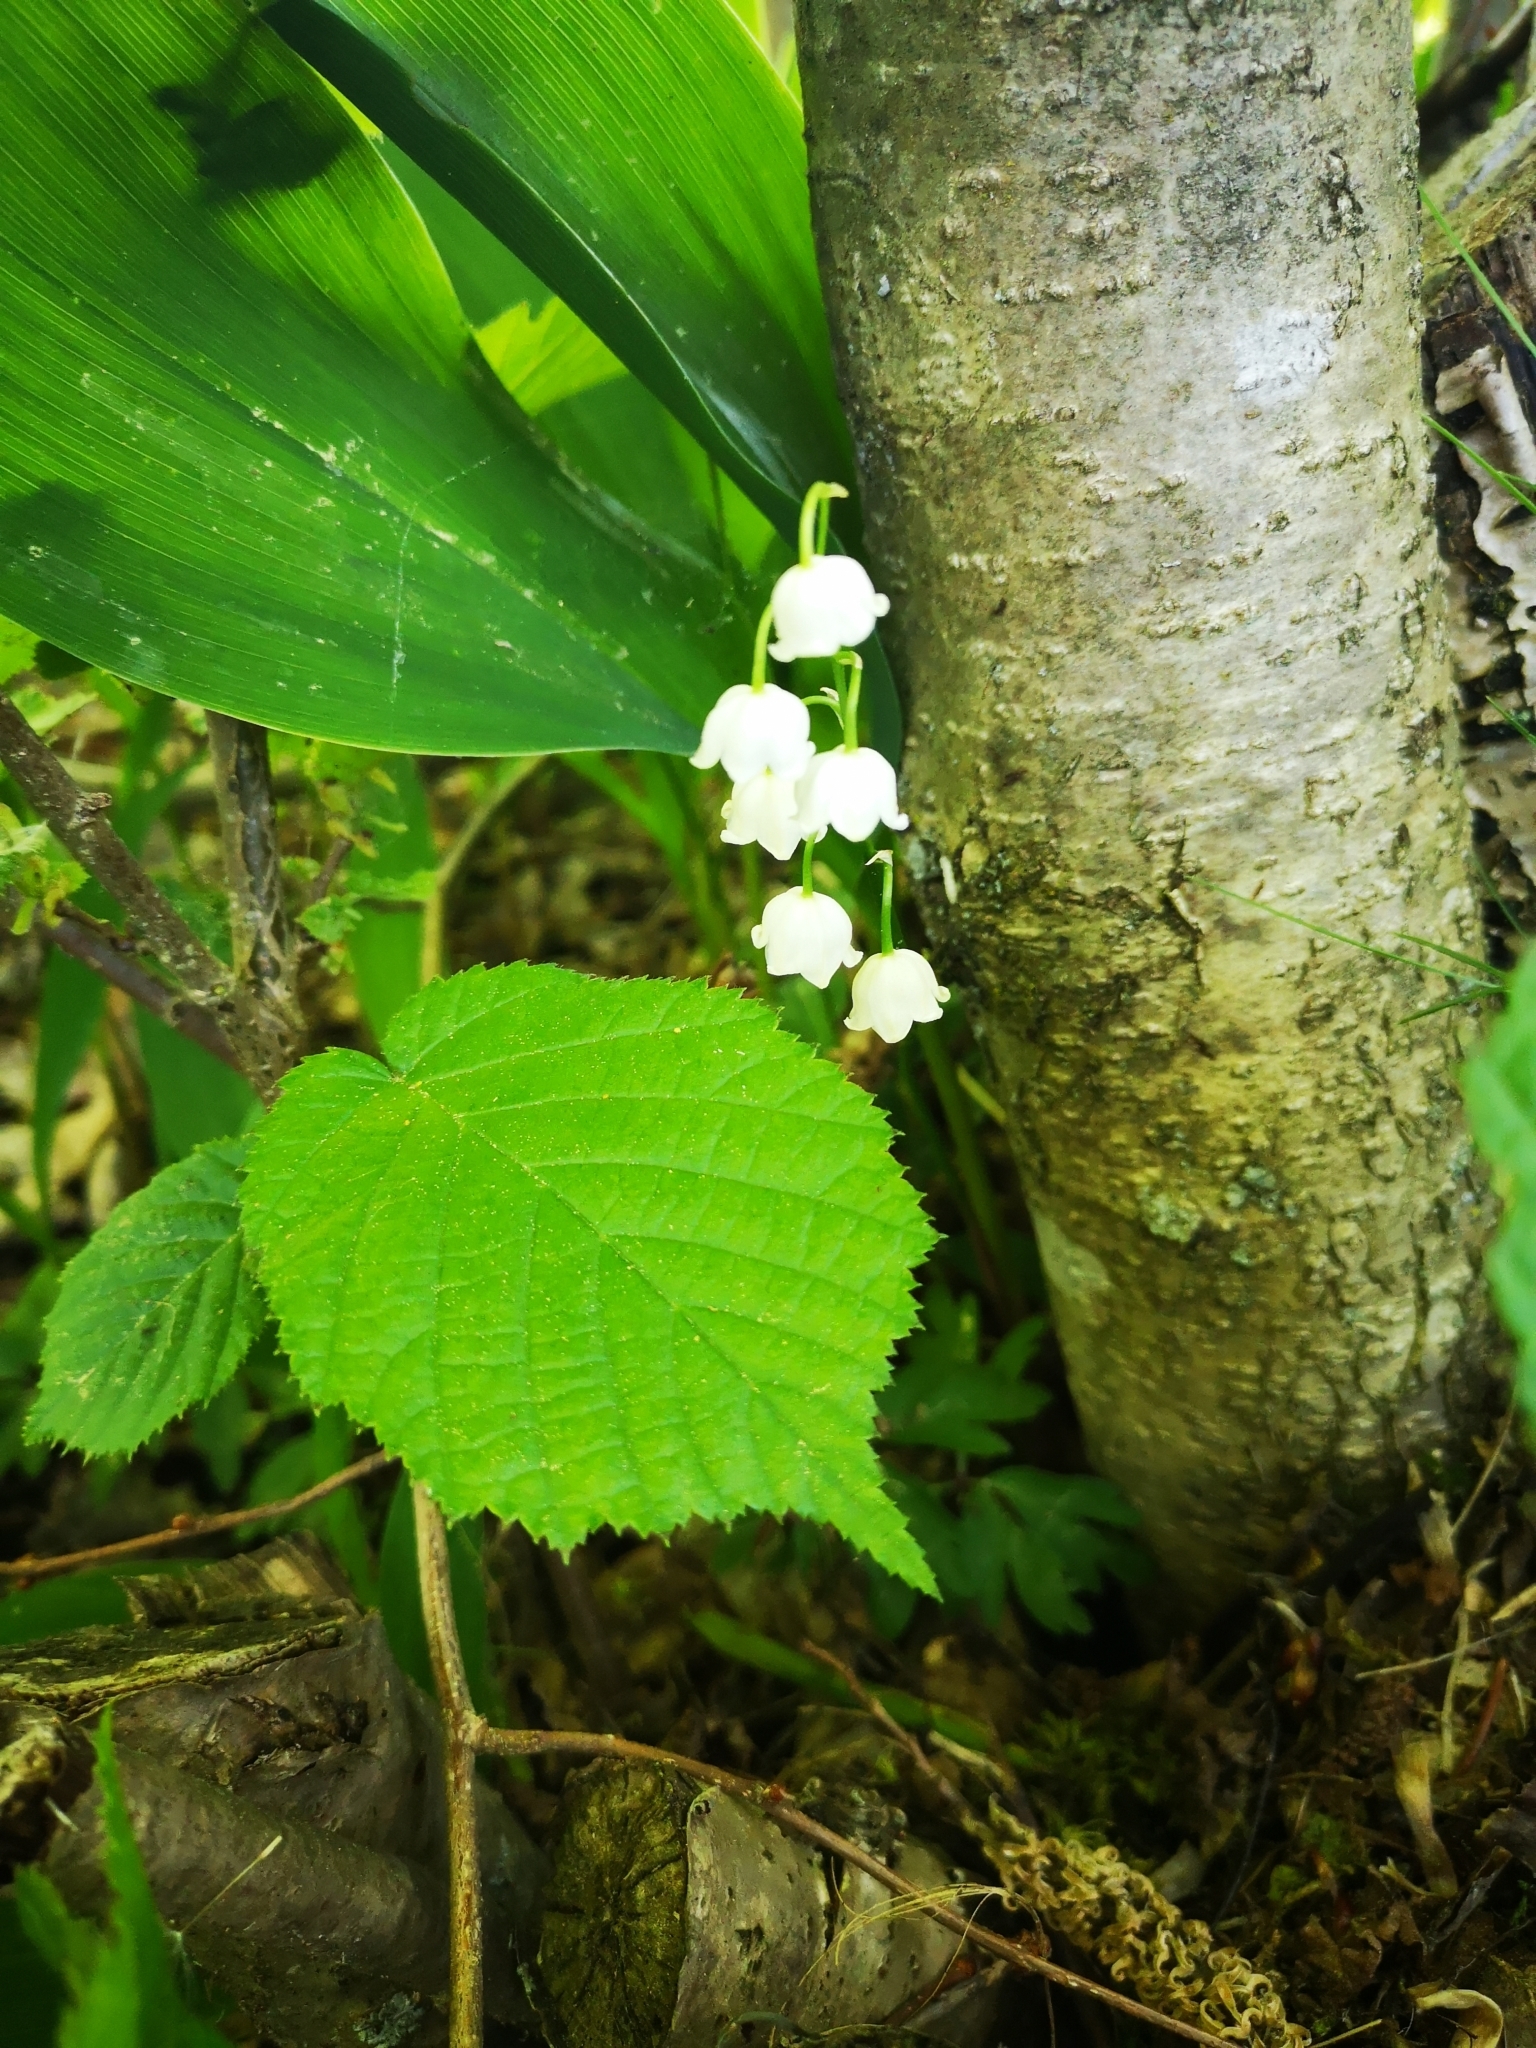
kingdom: Plantae
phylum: Tracheophyta
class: Liliopsida
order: Asparagales
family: Asparagaceae
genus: Convallaria
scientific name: Convallaria majalis
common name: Lily-of-the-valley
